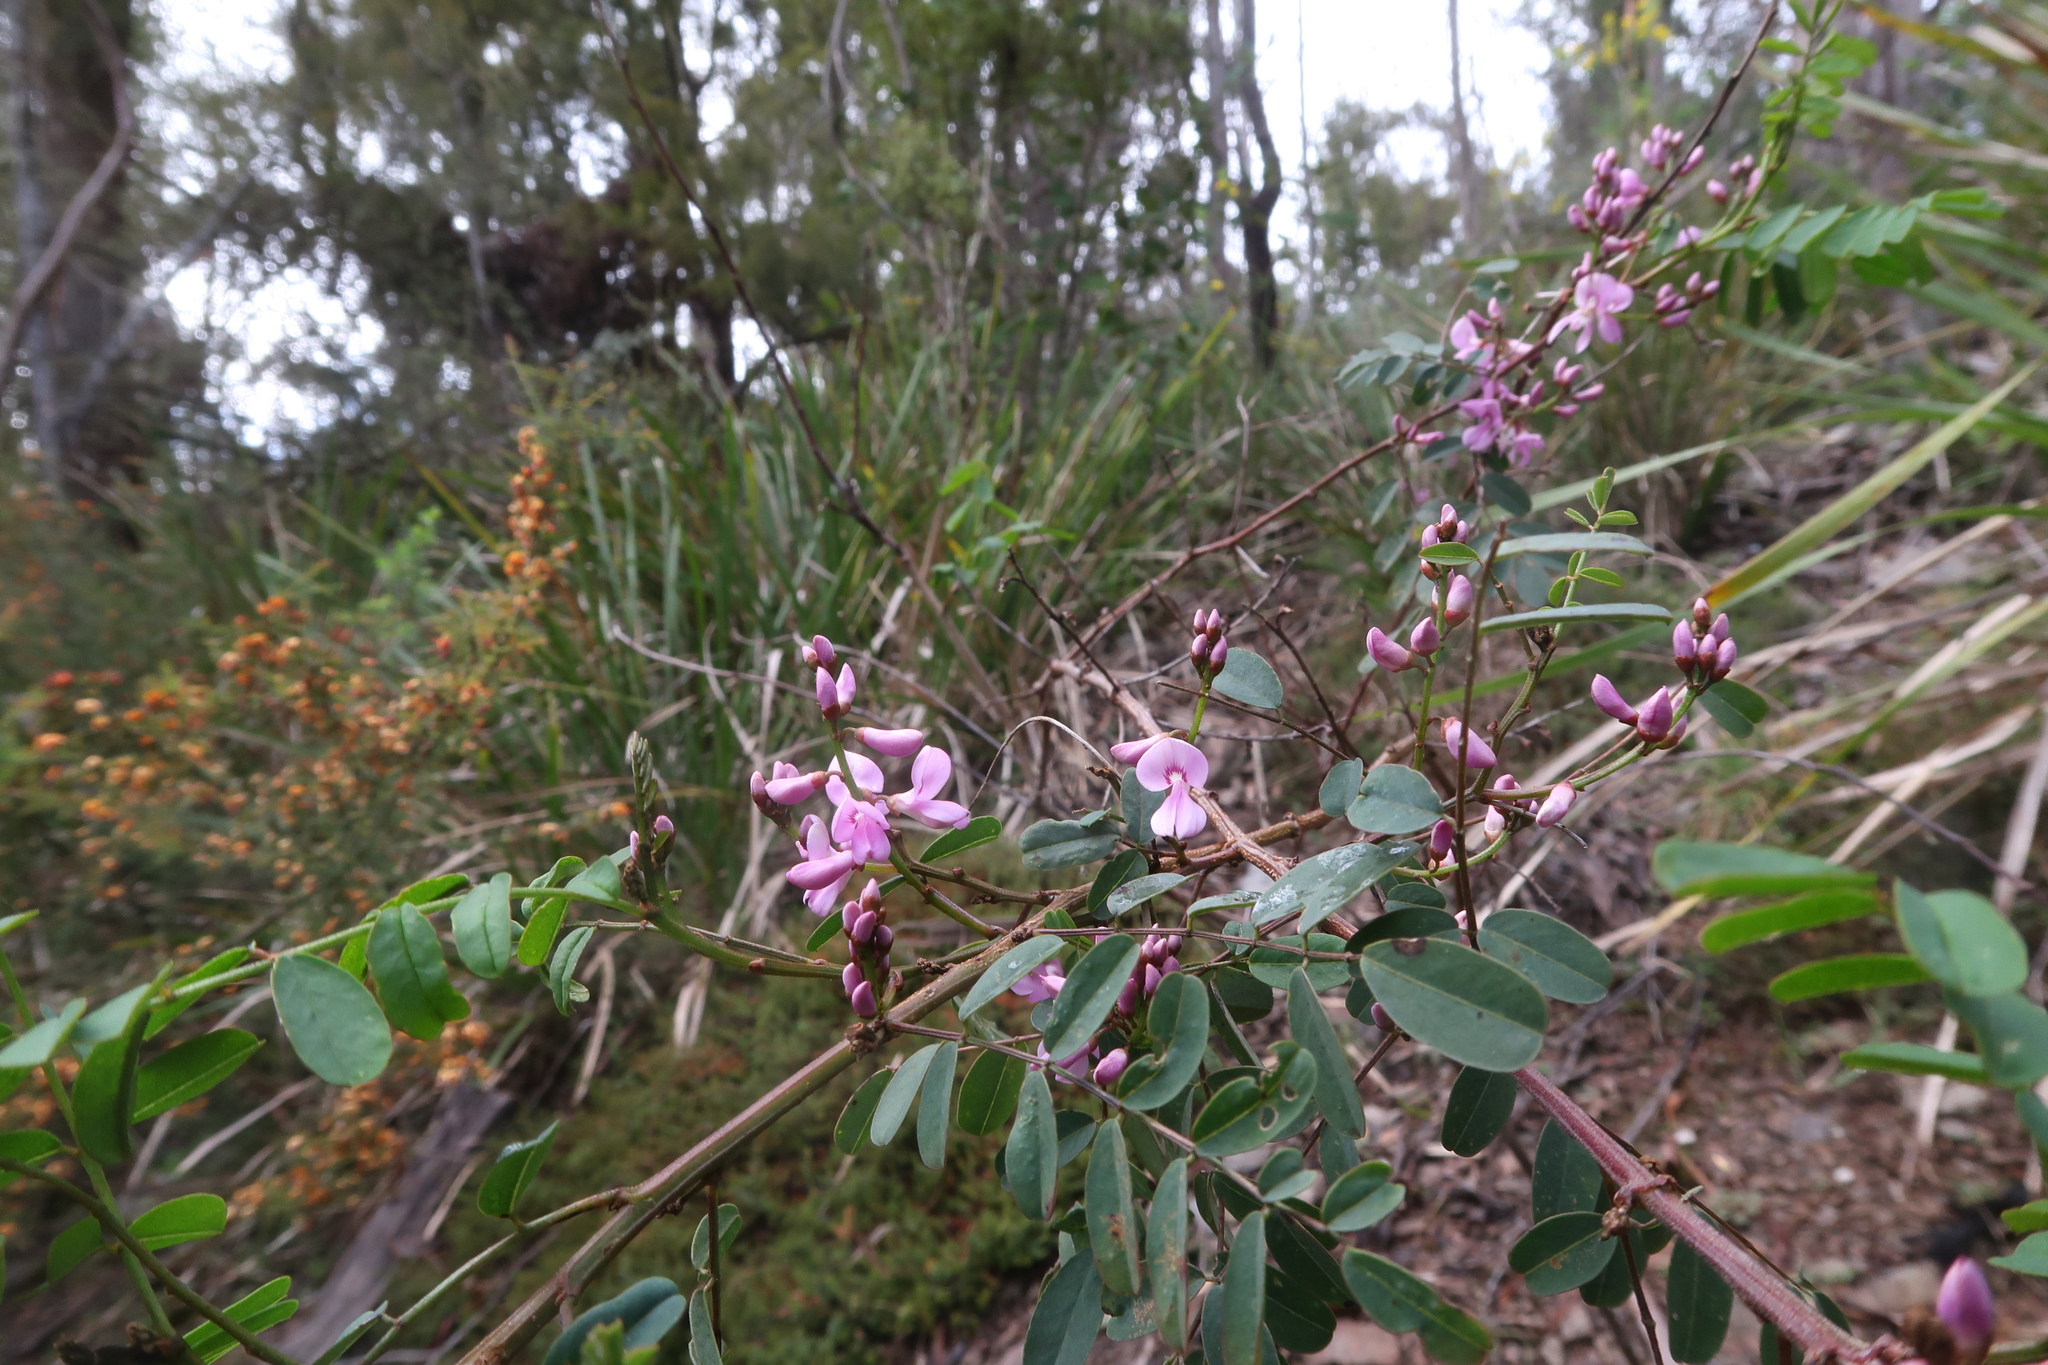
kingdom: Plantae
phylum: Tracheophyta
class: Magnoliopsida
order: Fabales
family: Fabaceae
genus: Indigofera
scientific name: Indigofera australis
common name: Australian indigo
